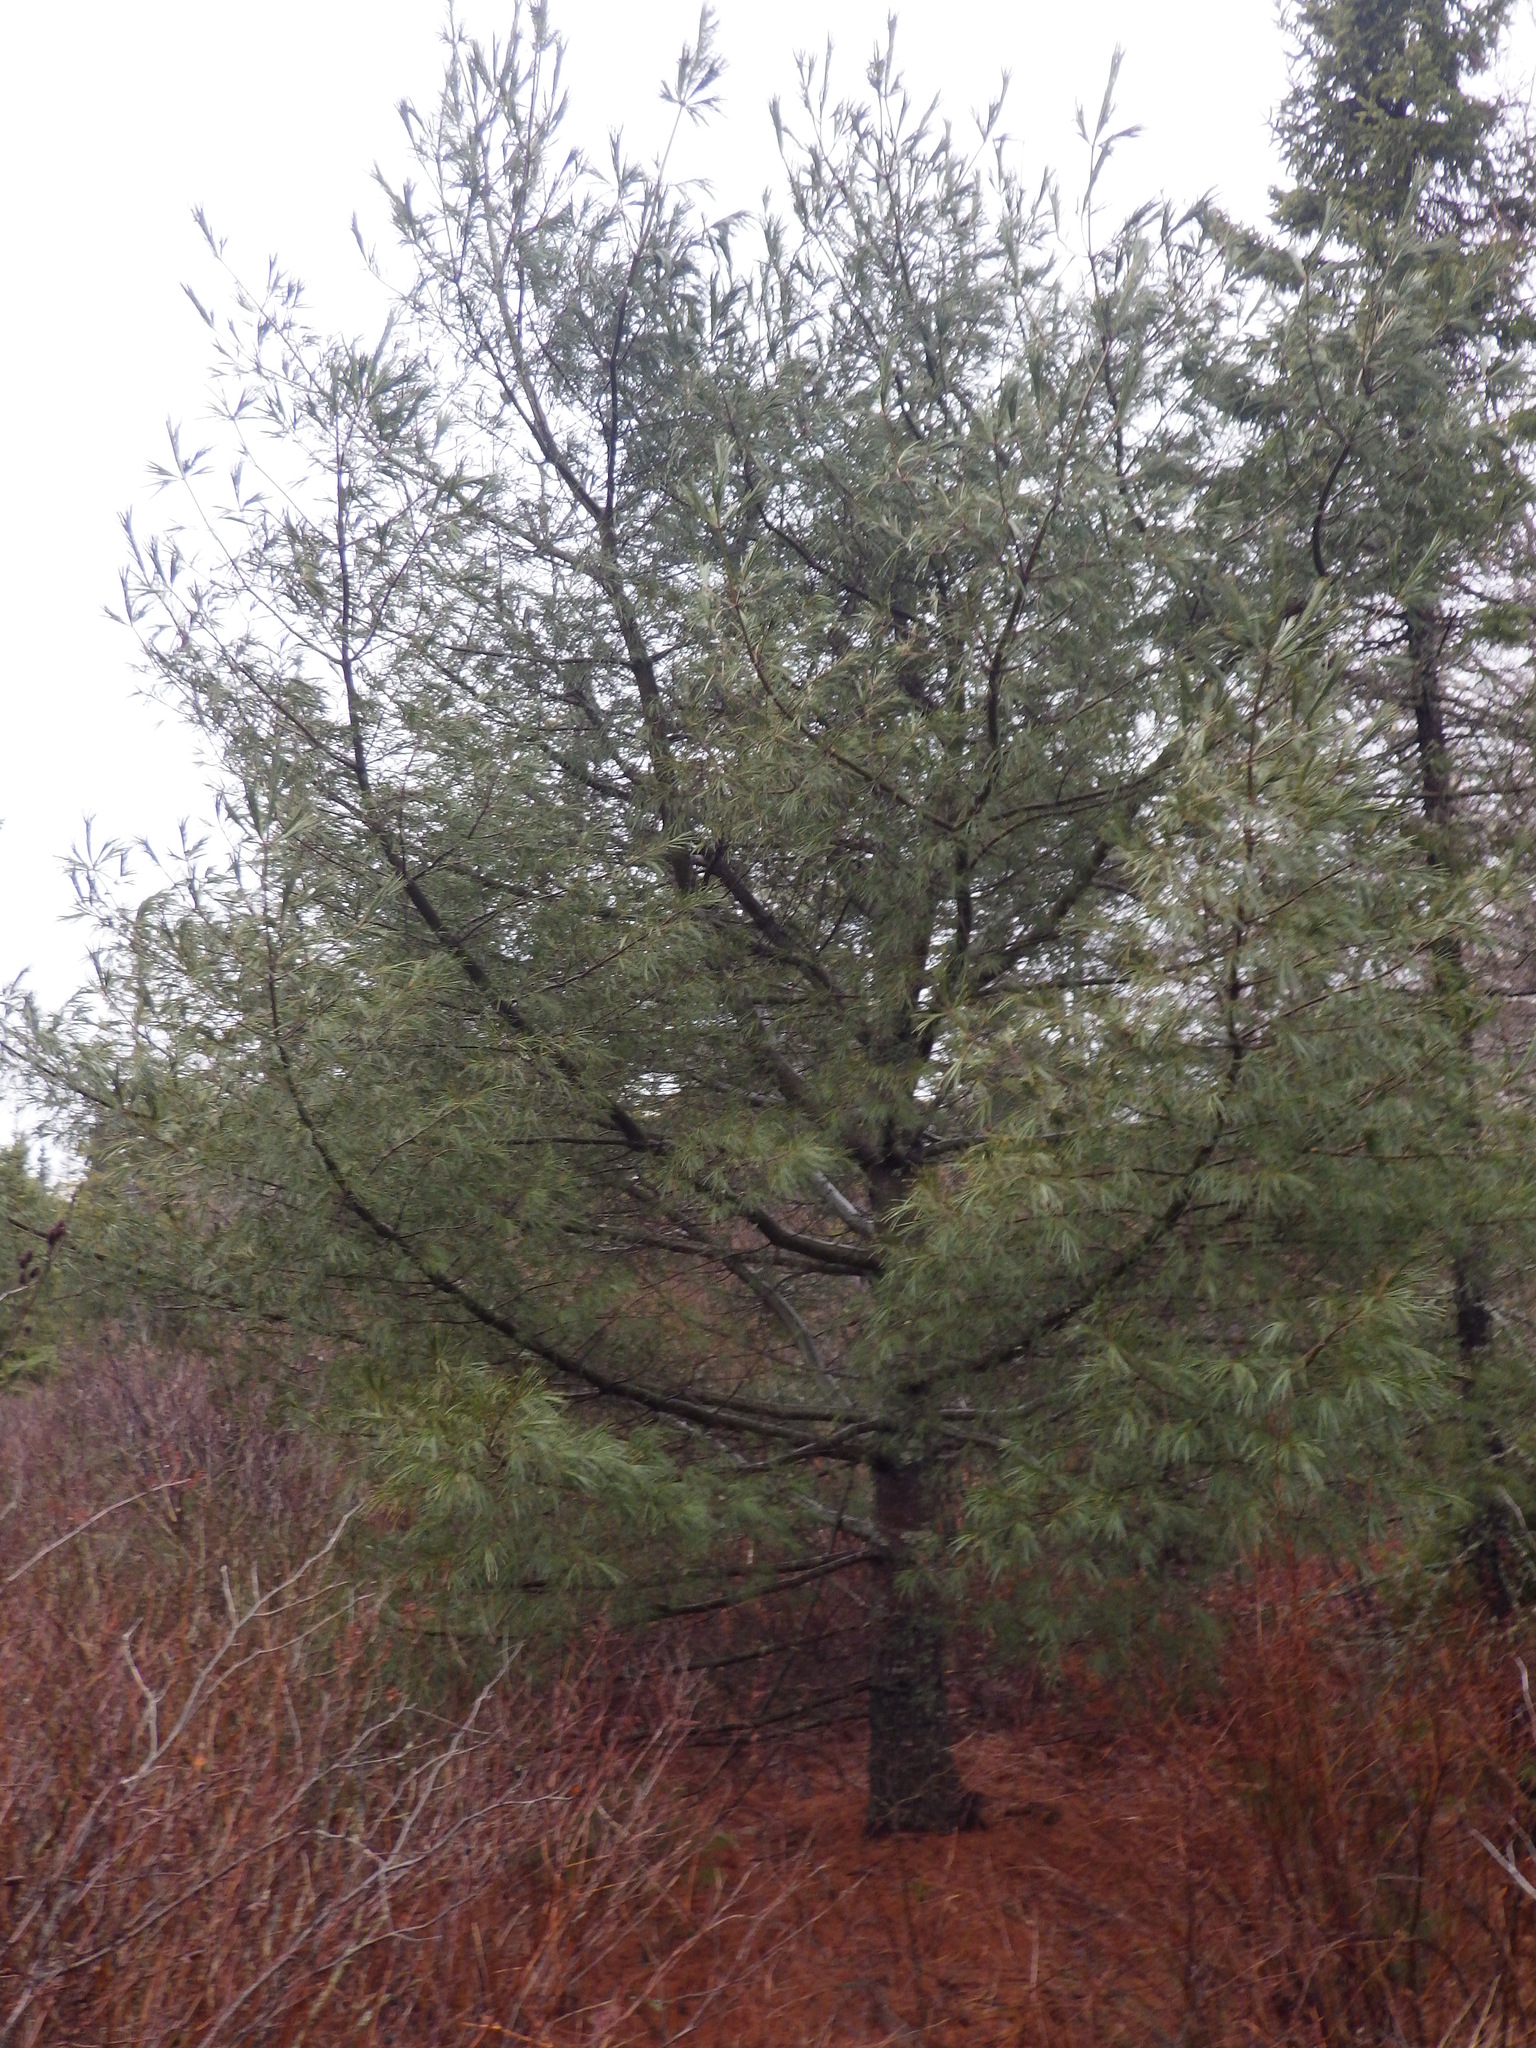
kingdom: Plantae
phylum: Tracheophyta
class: Pinopsida
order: Pinales
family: Pinaceae
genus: Pinus
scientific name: Pinus strobus
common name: Weymouth pine
